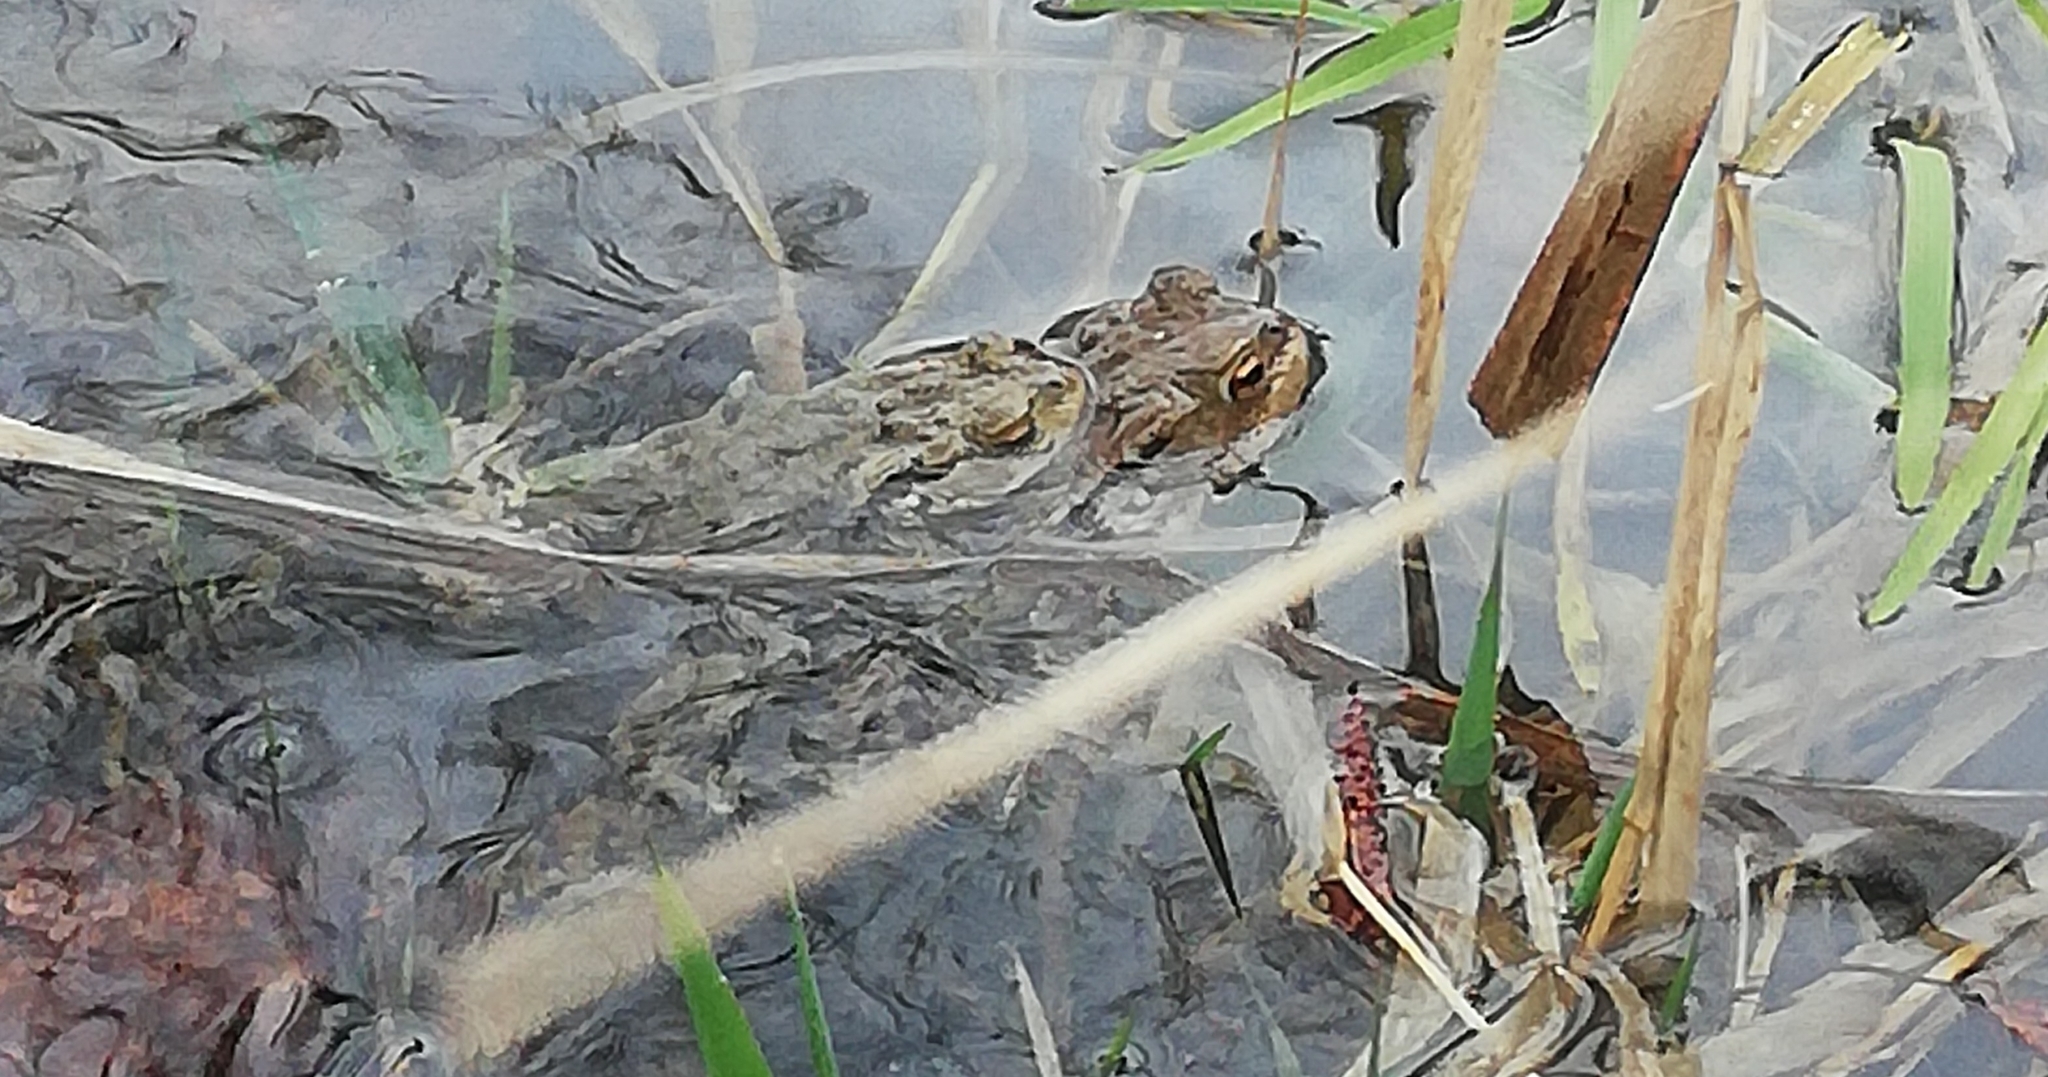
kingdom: Animalia
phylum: Chordata
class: Amphibia
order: Anura
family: Bufonidae
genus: Bufo
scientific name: Bufo bufo
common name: Common toad
